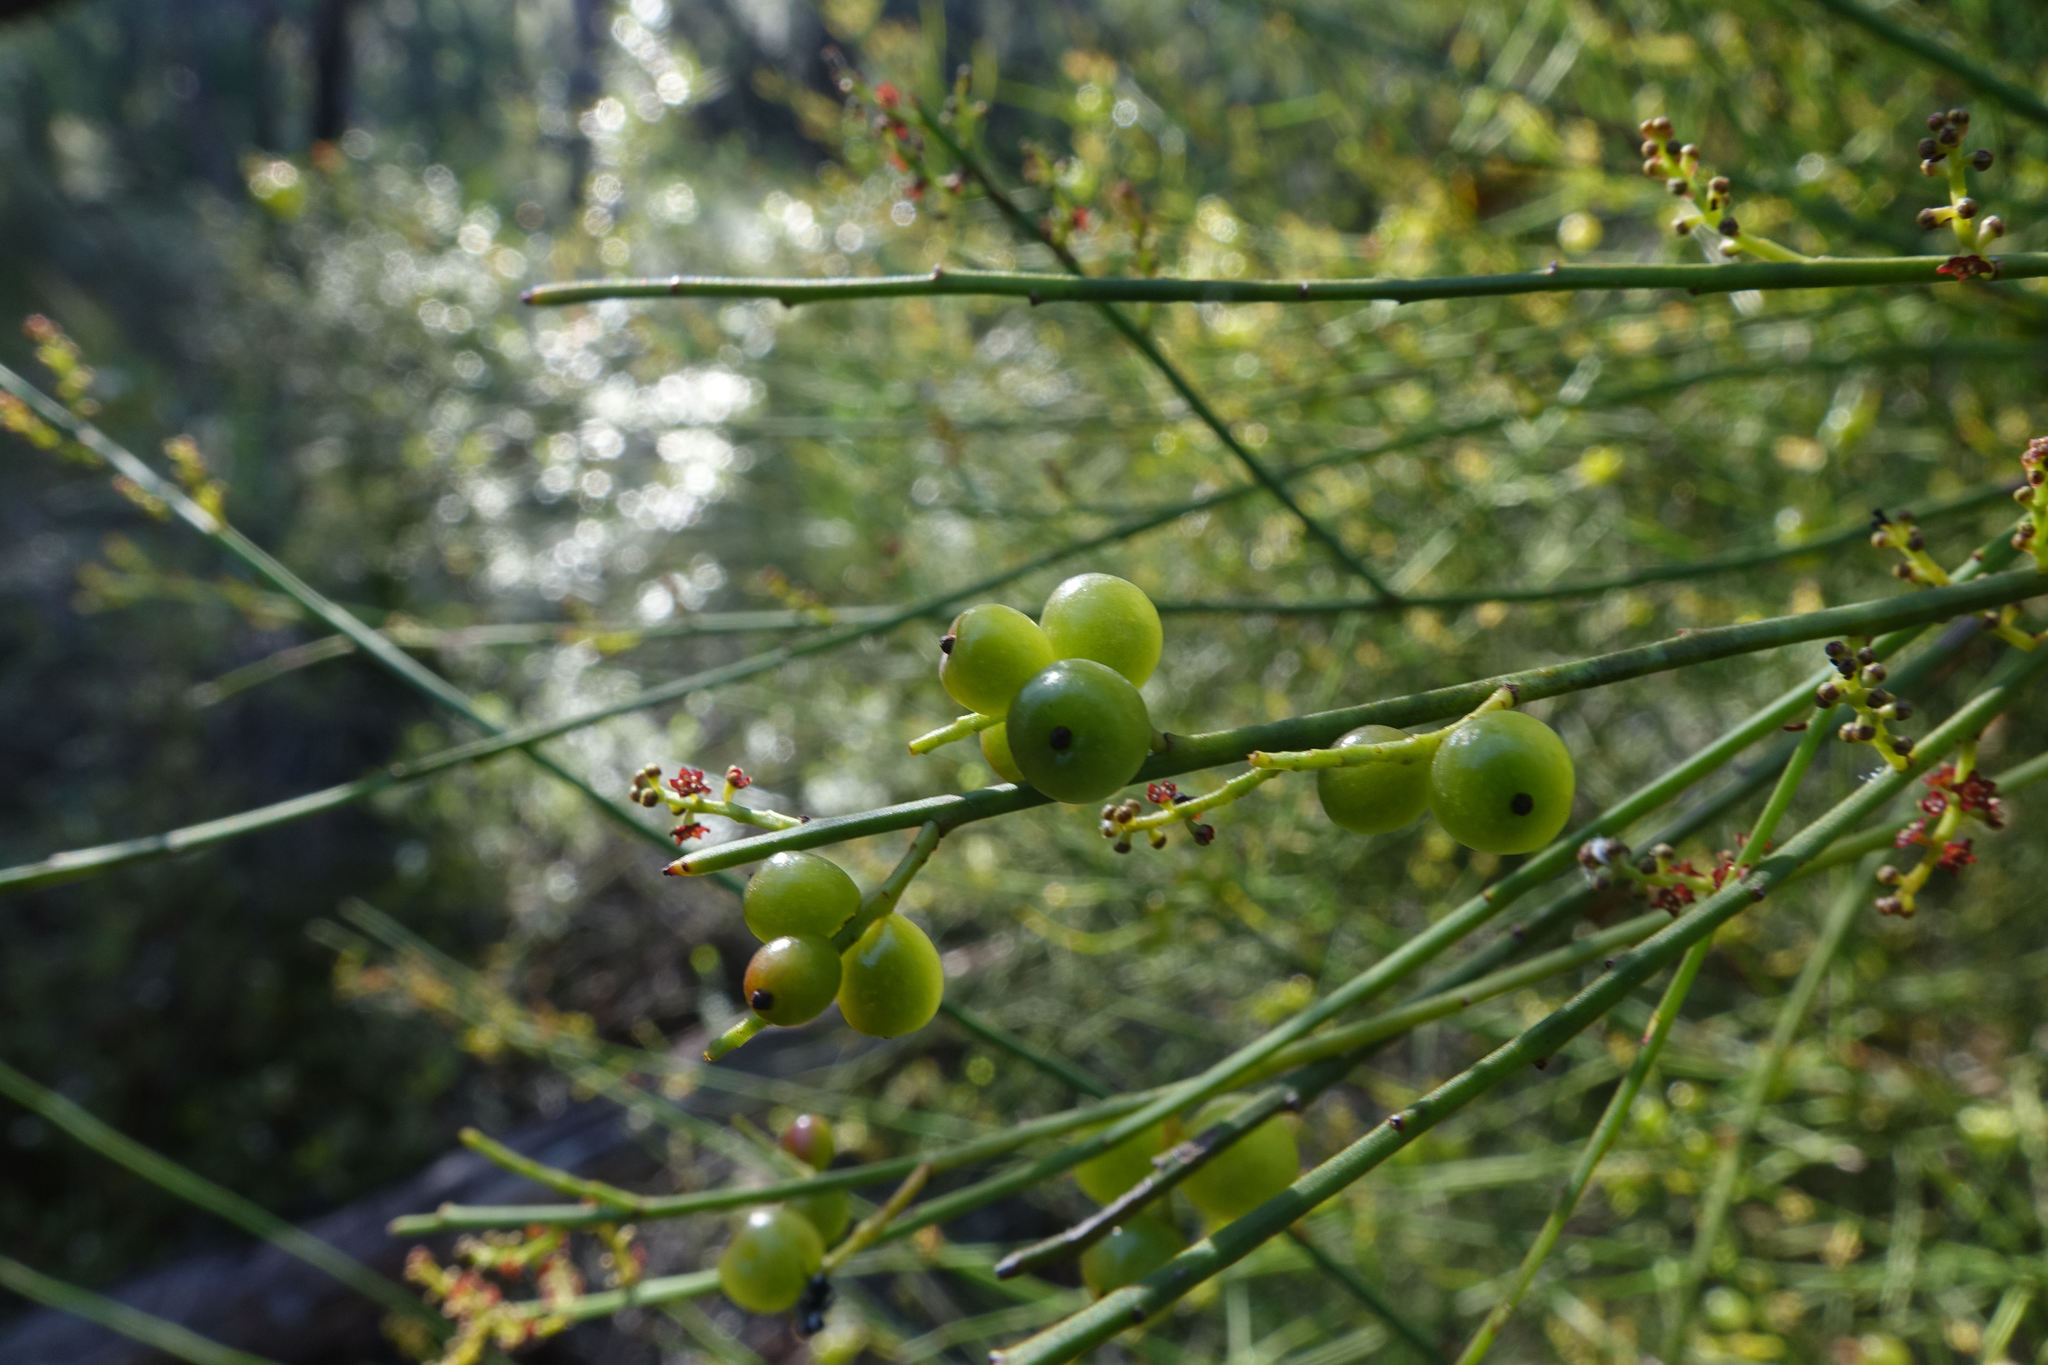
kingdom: Plantae
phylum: Tracheophyta
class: Magnoliopsida
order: Santalales
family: Amphorogynaceae
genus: Choretrum
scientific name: Choretrum candollei
